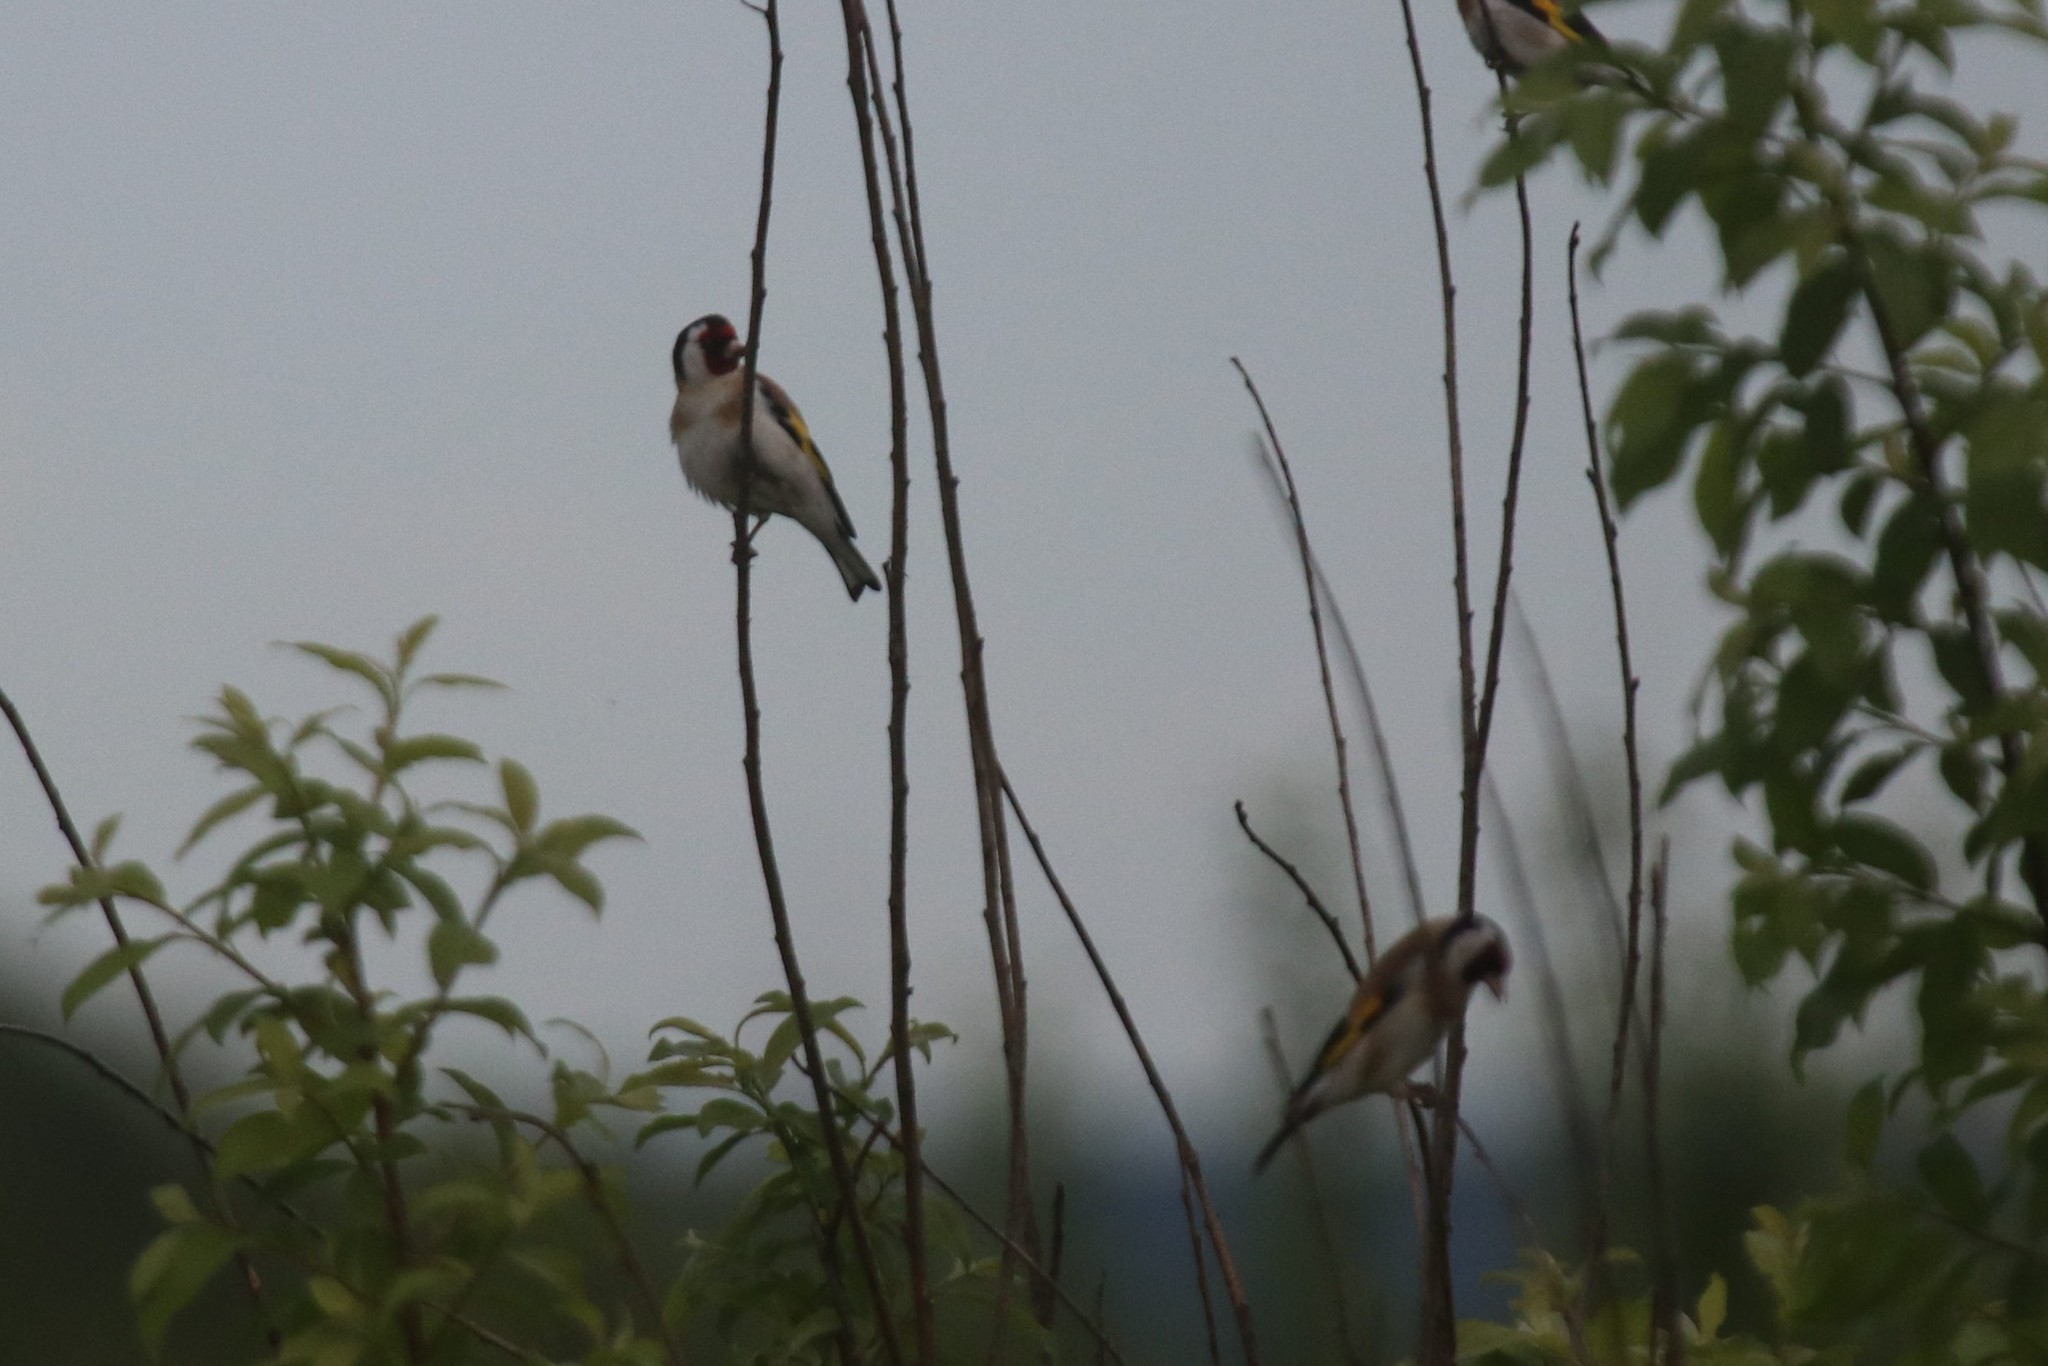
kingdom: Animalia
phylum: Chordata
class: Aves
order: Passeriformes
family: Fringillidae
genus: Carduelis
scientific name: Carduelis carduelis
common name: European goldfinch
